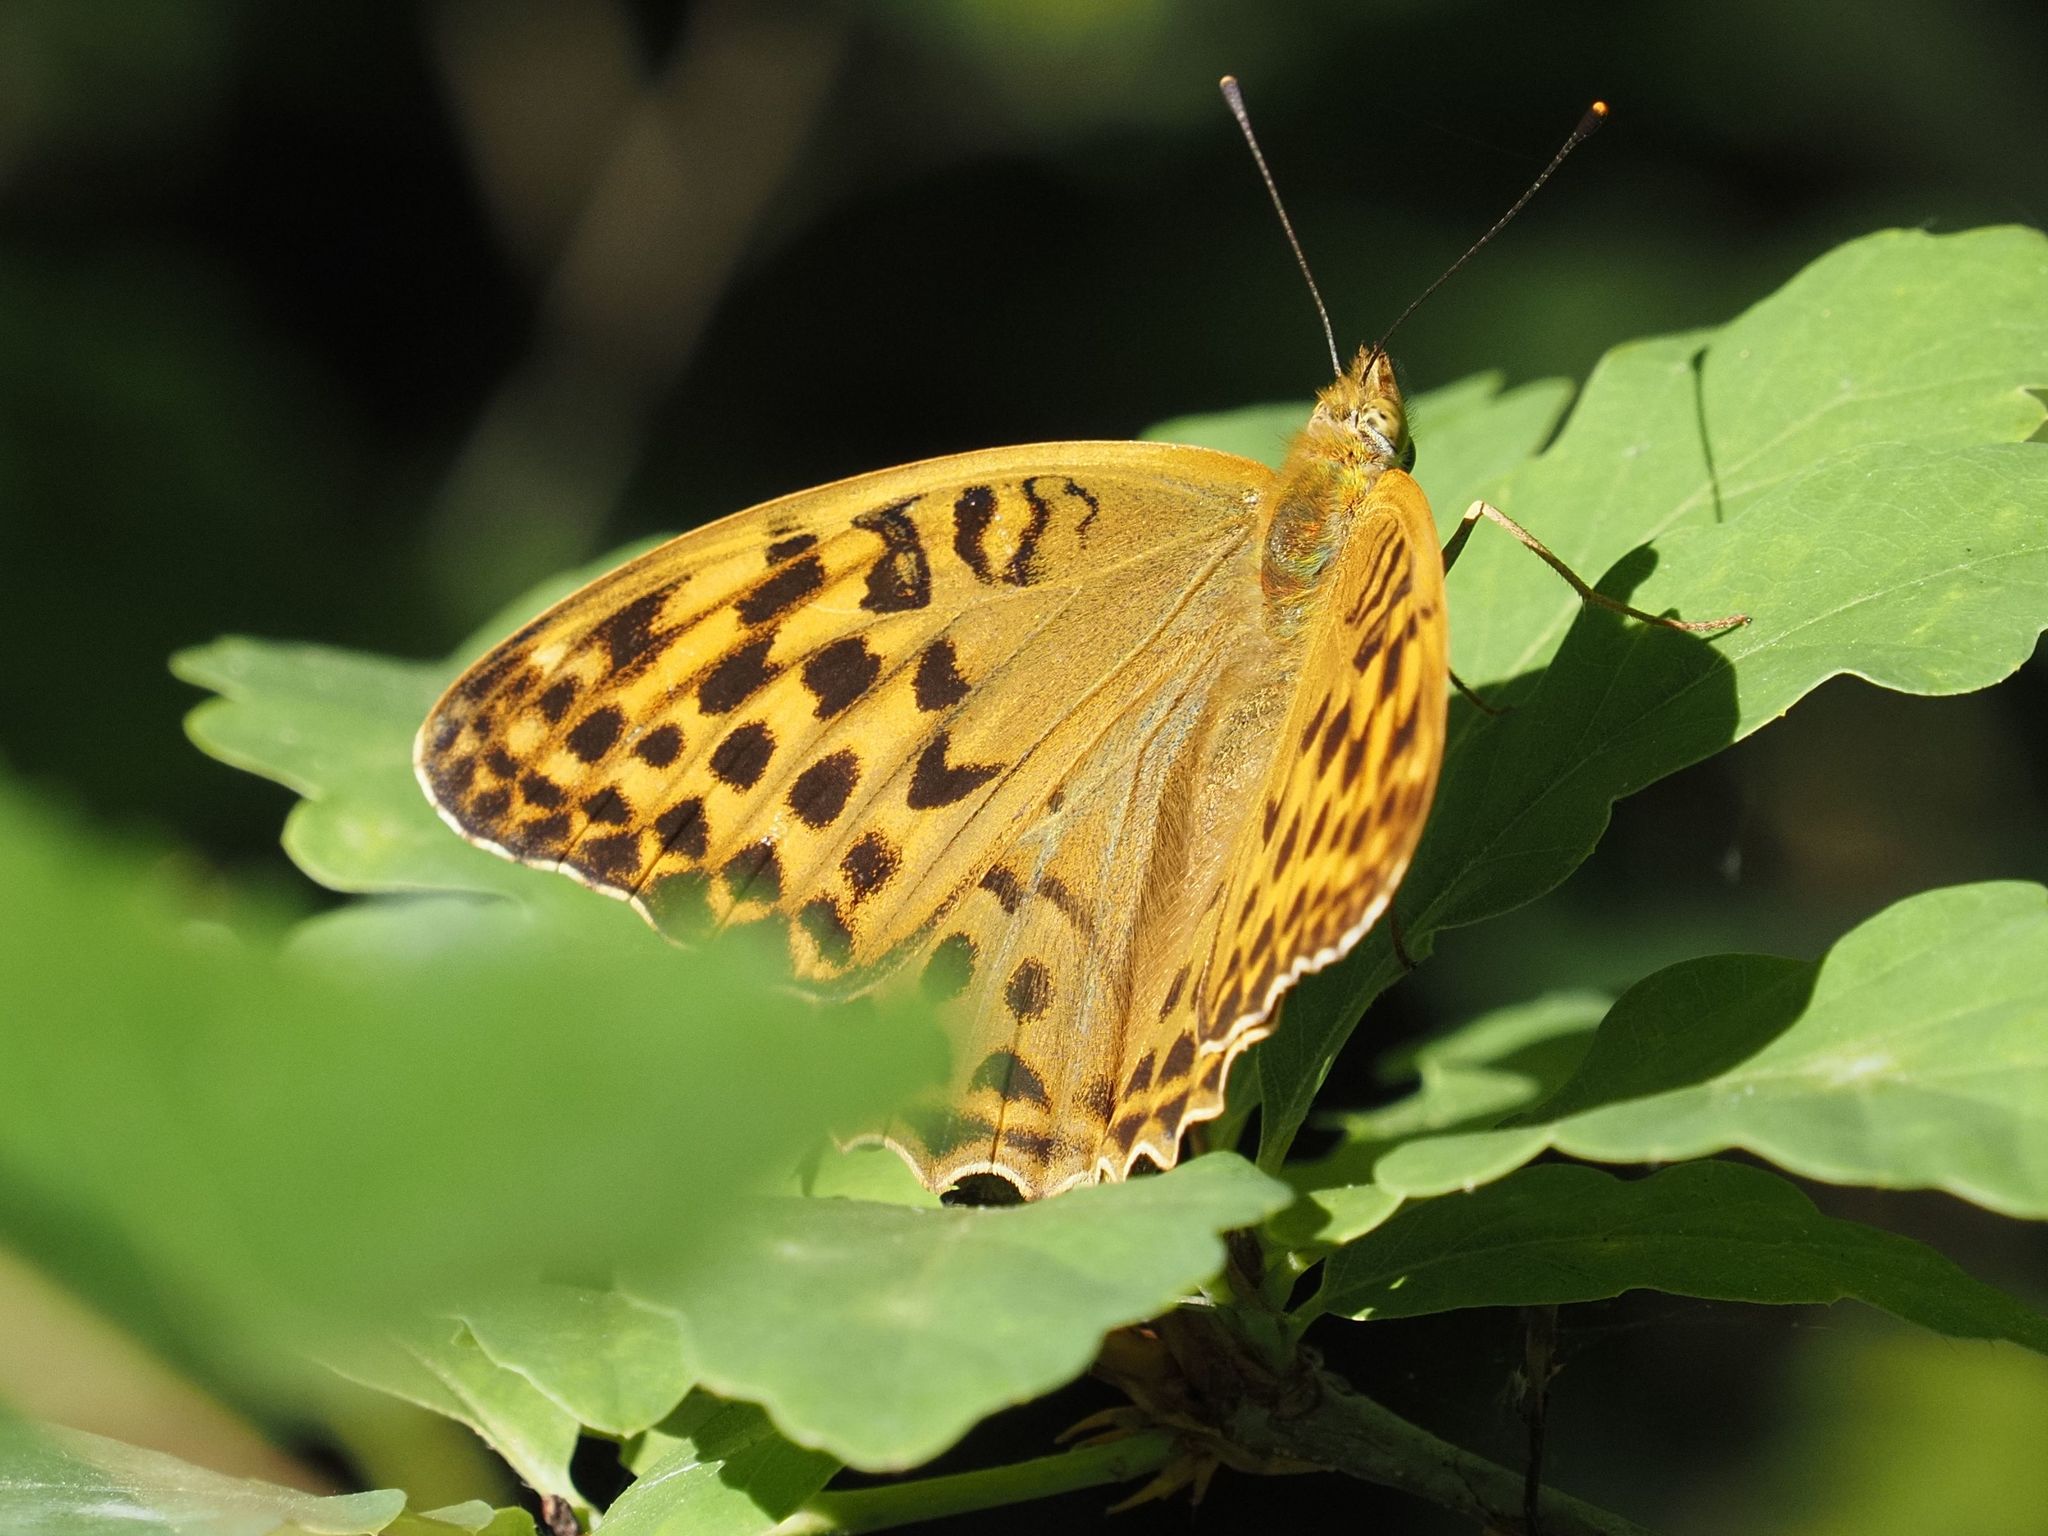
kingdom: Animalia
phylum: Arthropoda
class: Insecta
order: Lepidoptera
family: Nymphalidae
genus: Argynnis
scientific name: Argynnis paphia
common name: Silver-washed fritillary
